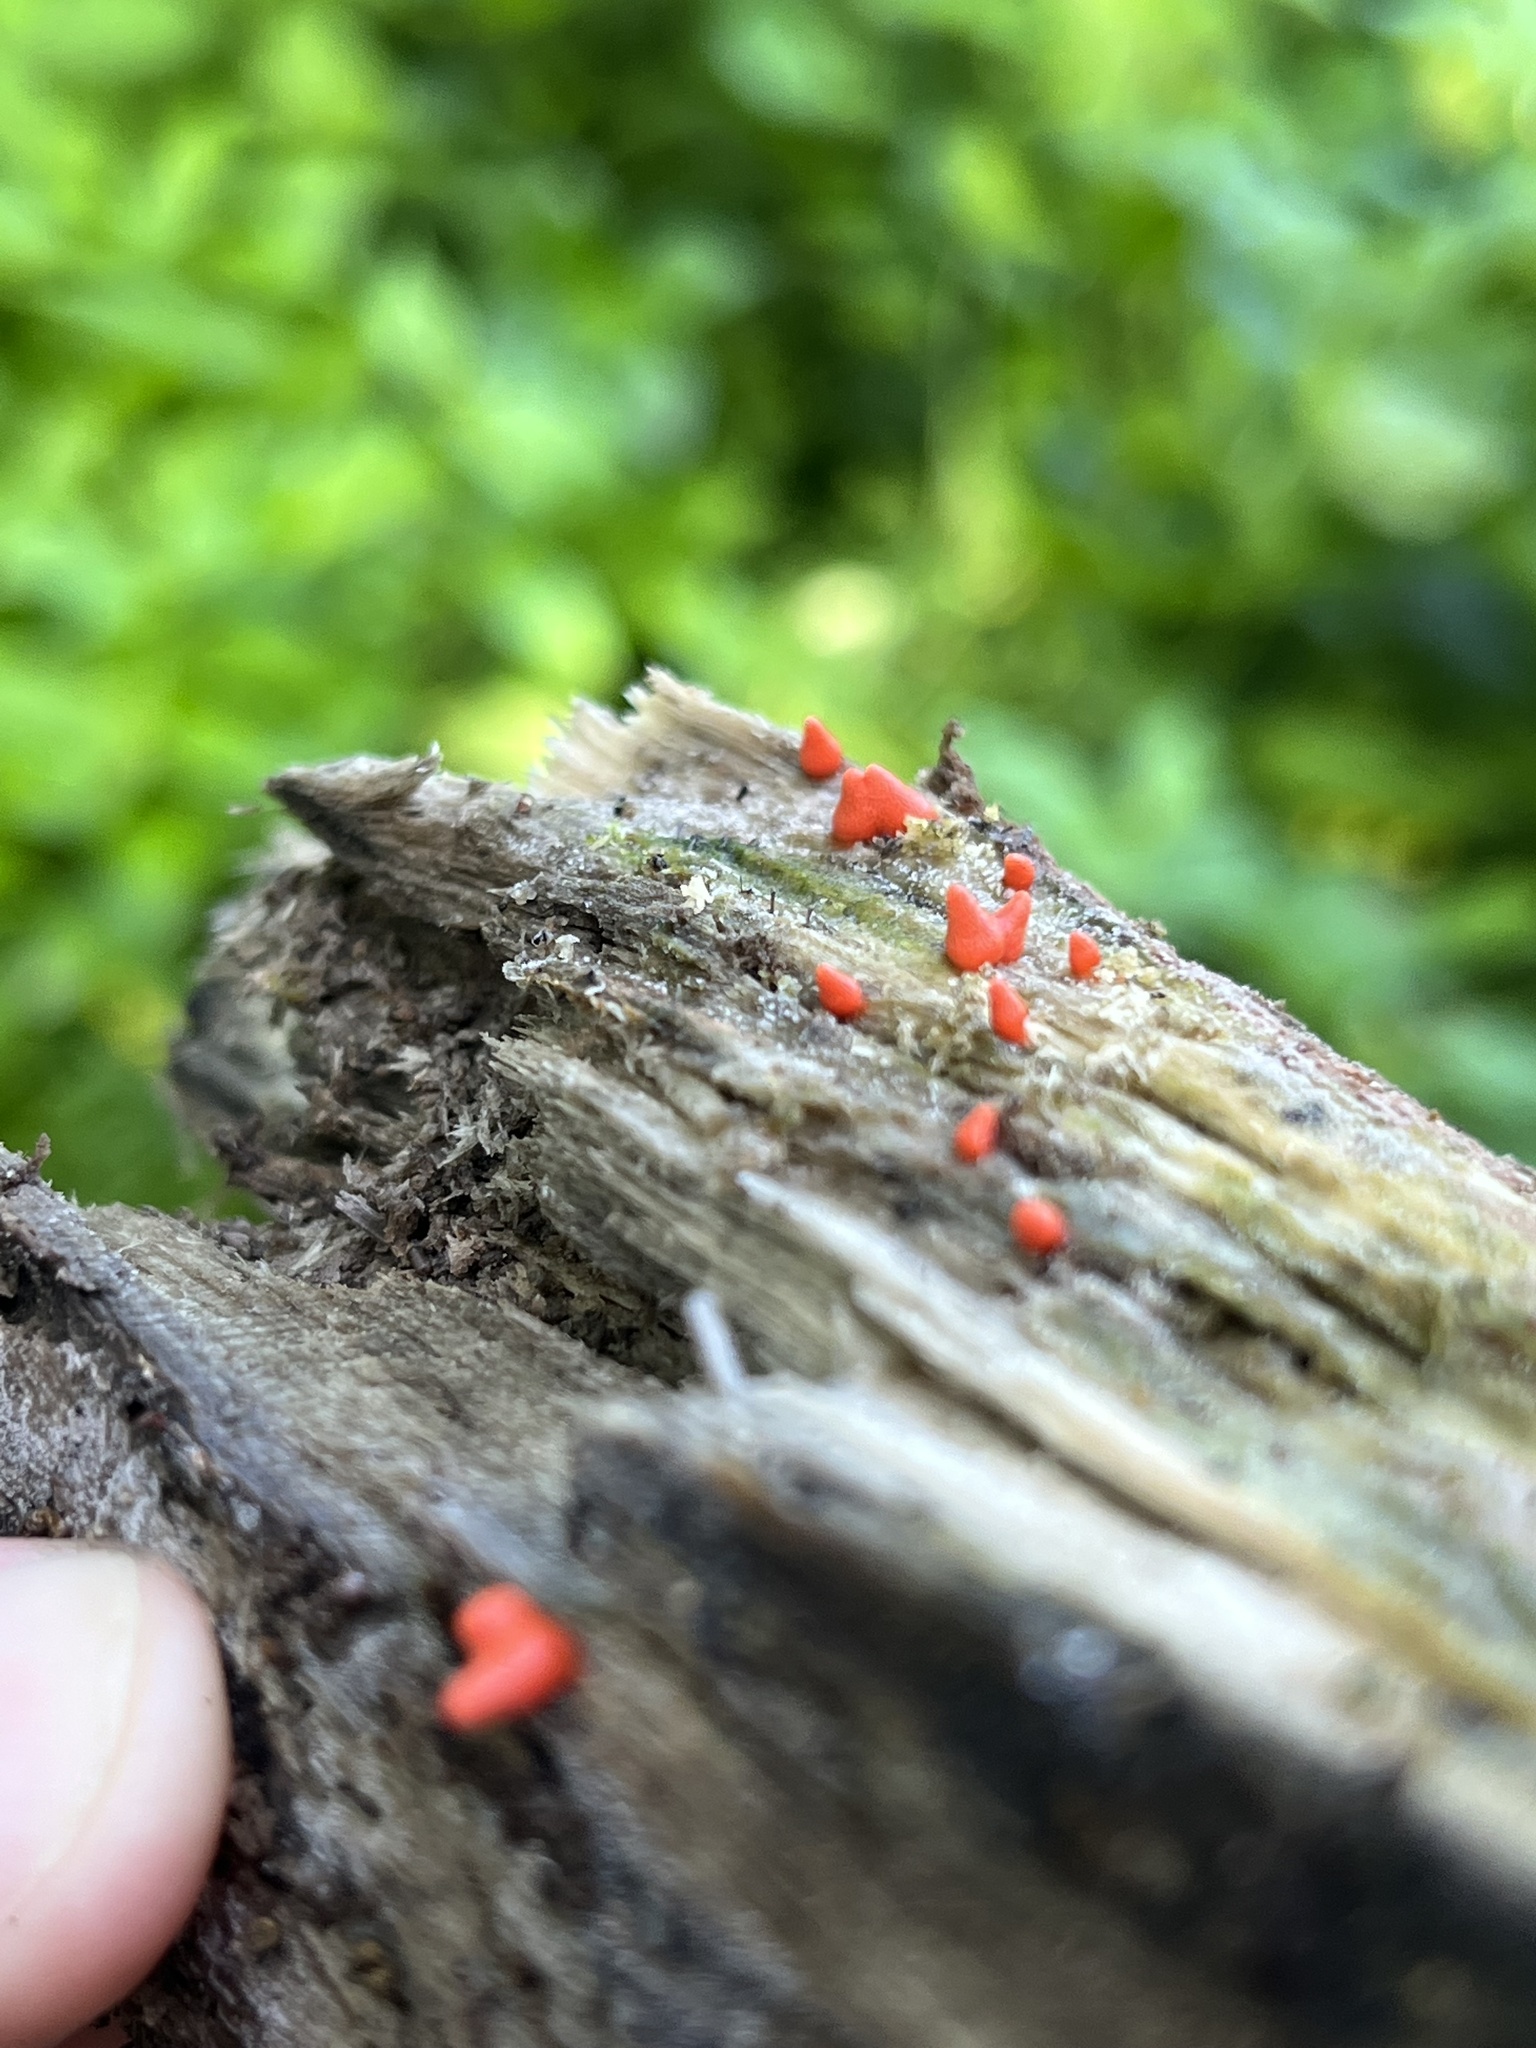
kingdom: Protozoa
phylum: Mycetozoa
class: Myxomycetes
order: Cribrariales
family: Tubiferaceae
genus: Lycogala
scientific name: Lycogala conicum
